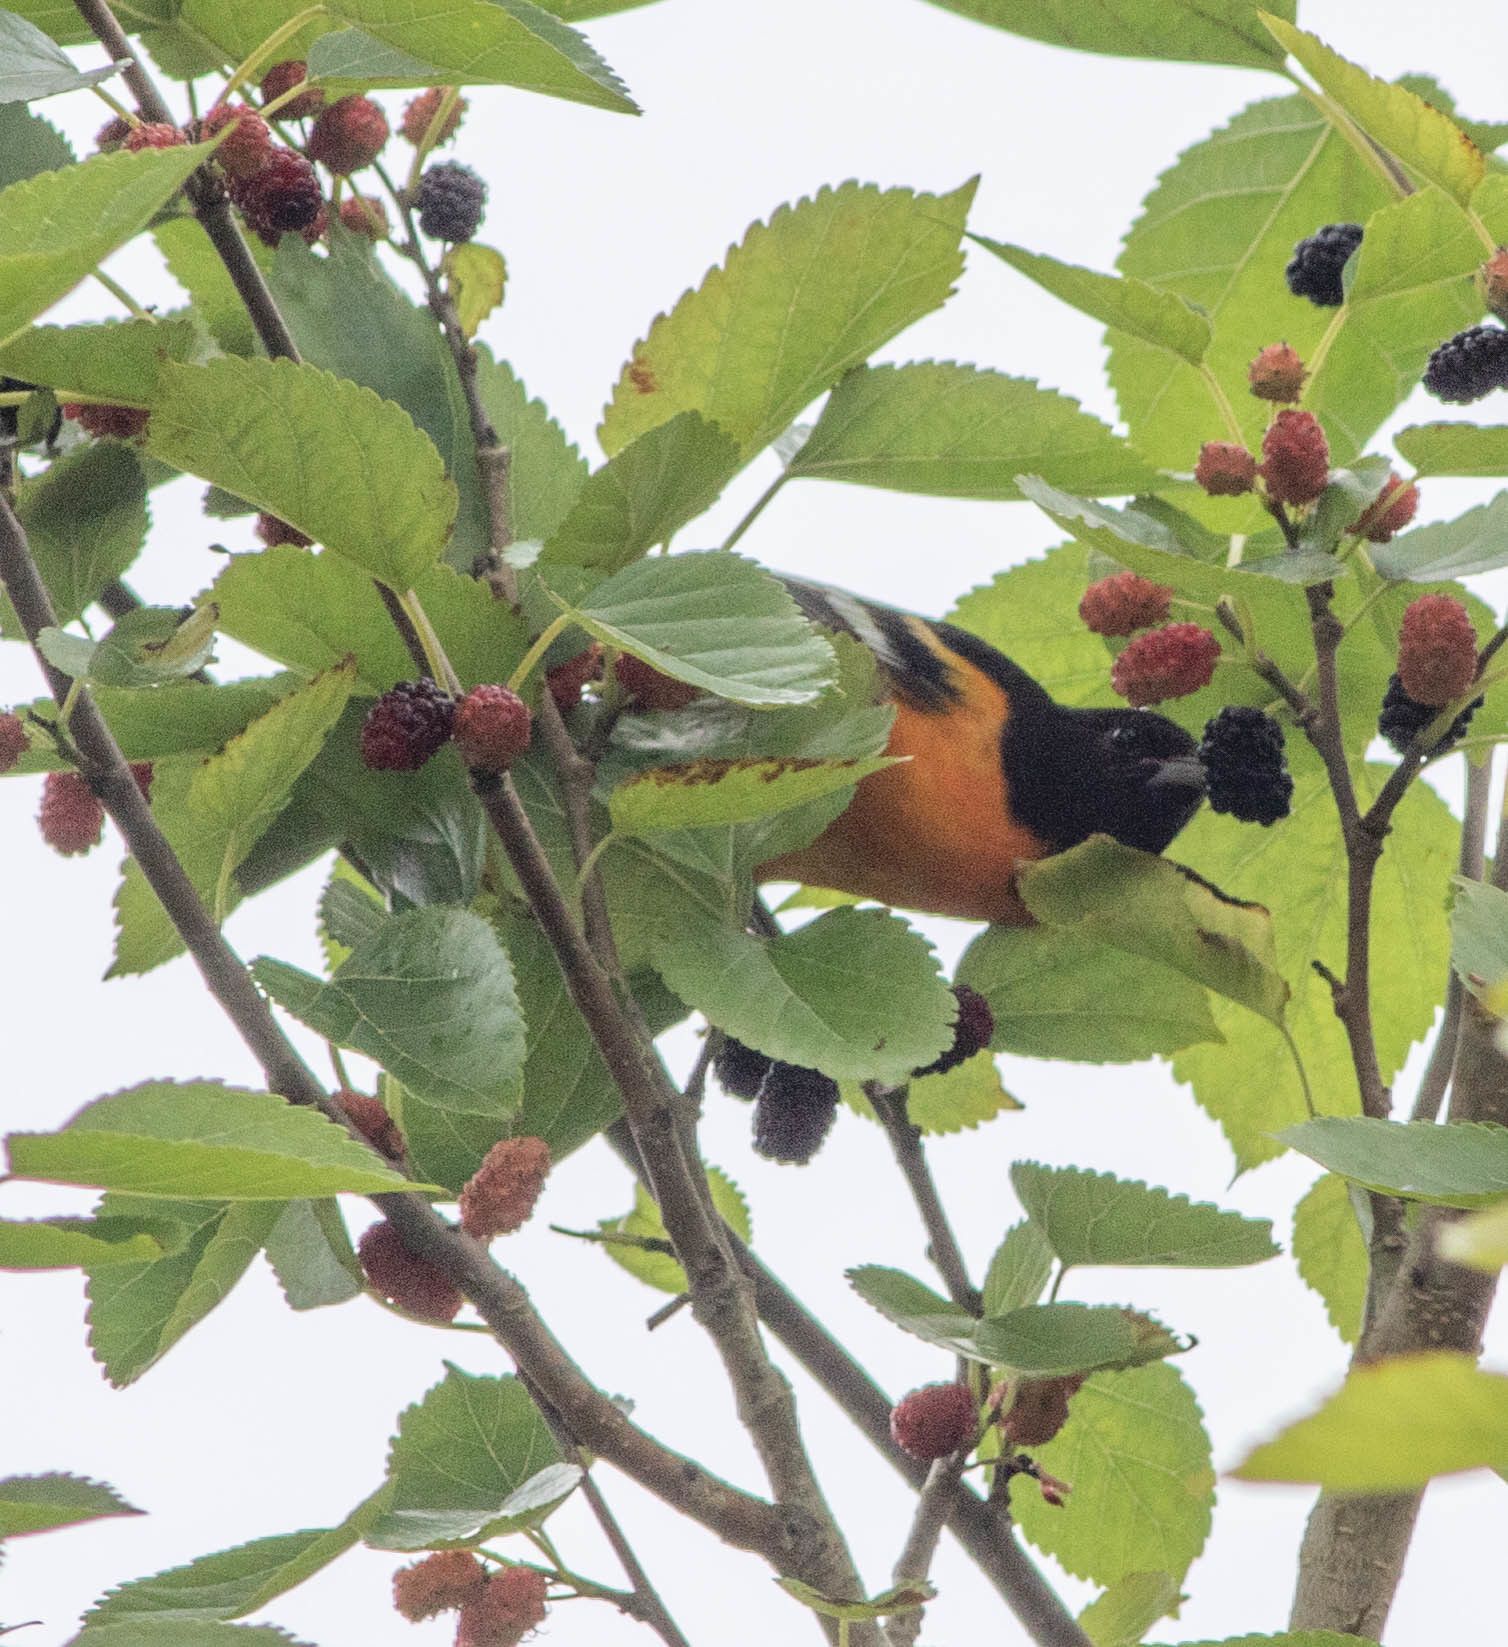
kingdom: Animalia
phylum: Chordata
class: Aves
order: Passeriformes
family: Icteridae
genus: Icterus
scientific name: Icterus galbula
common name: Baltimore oriole
